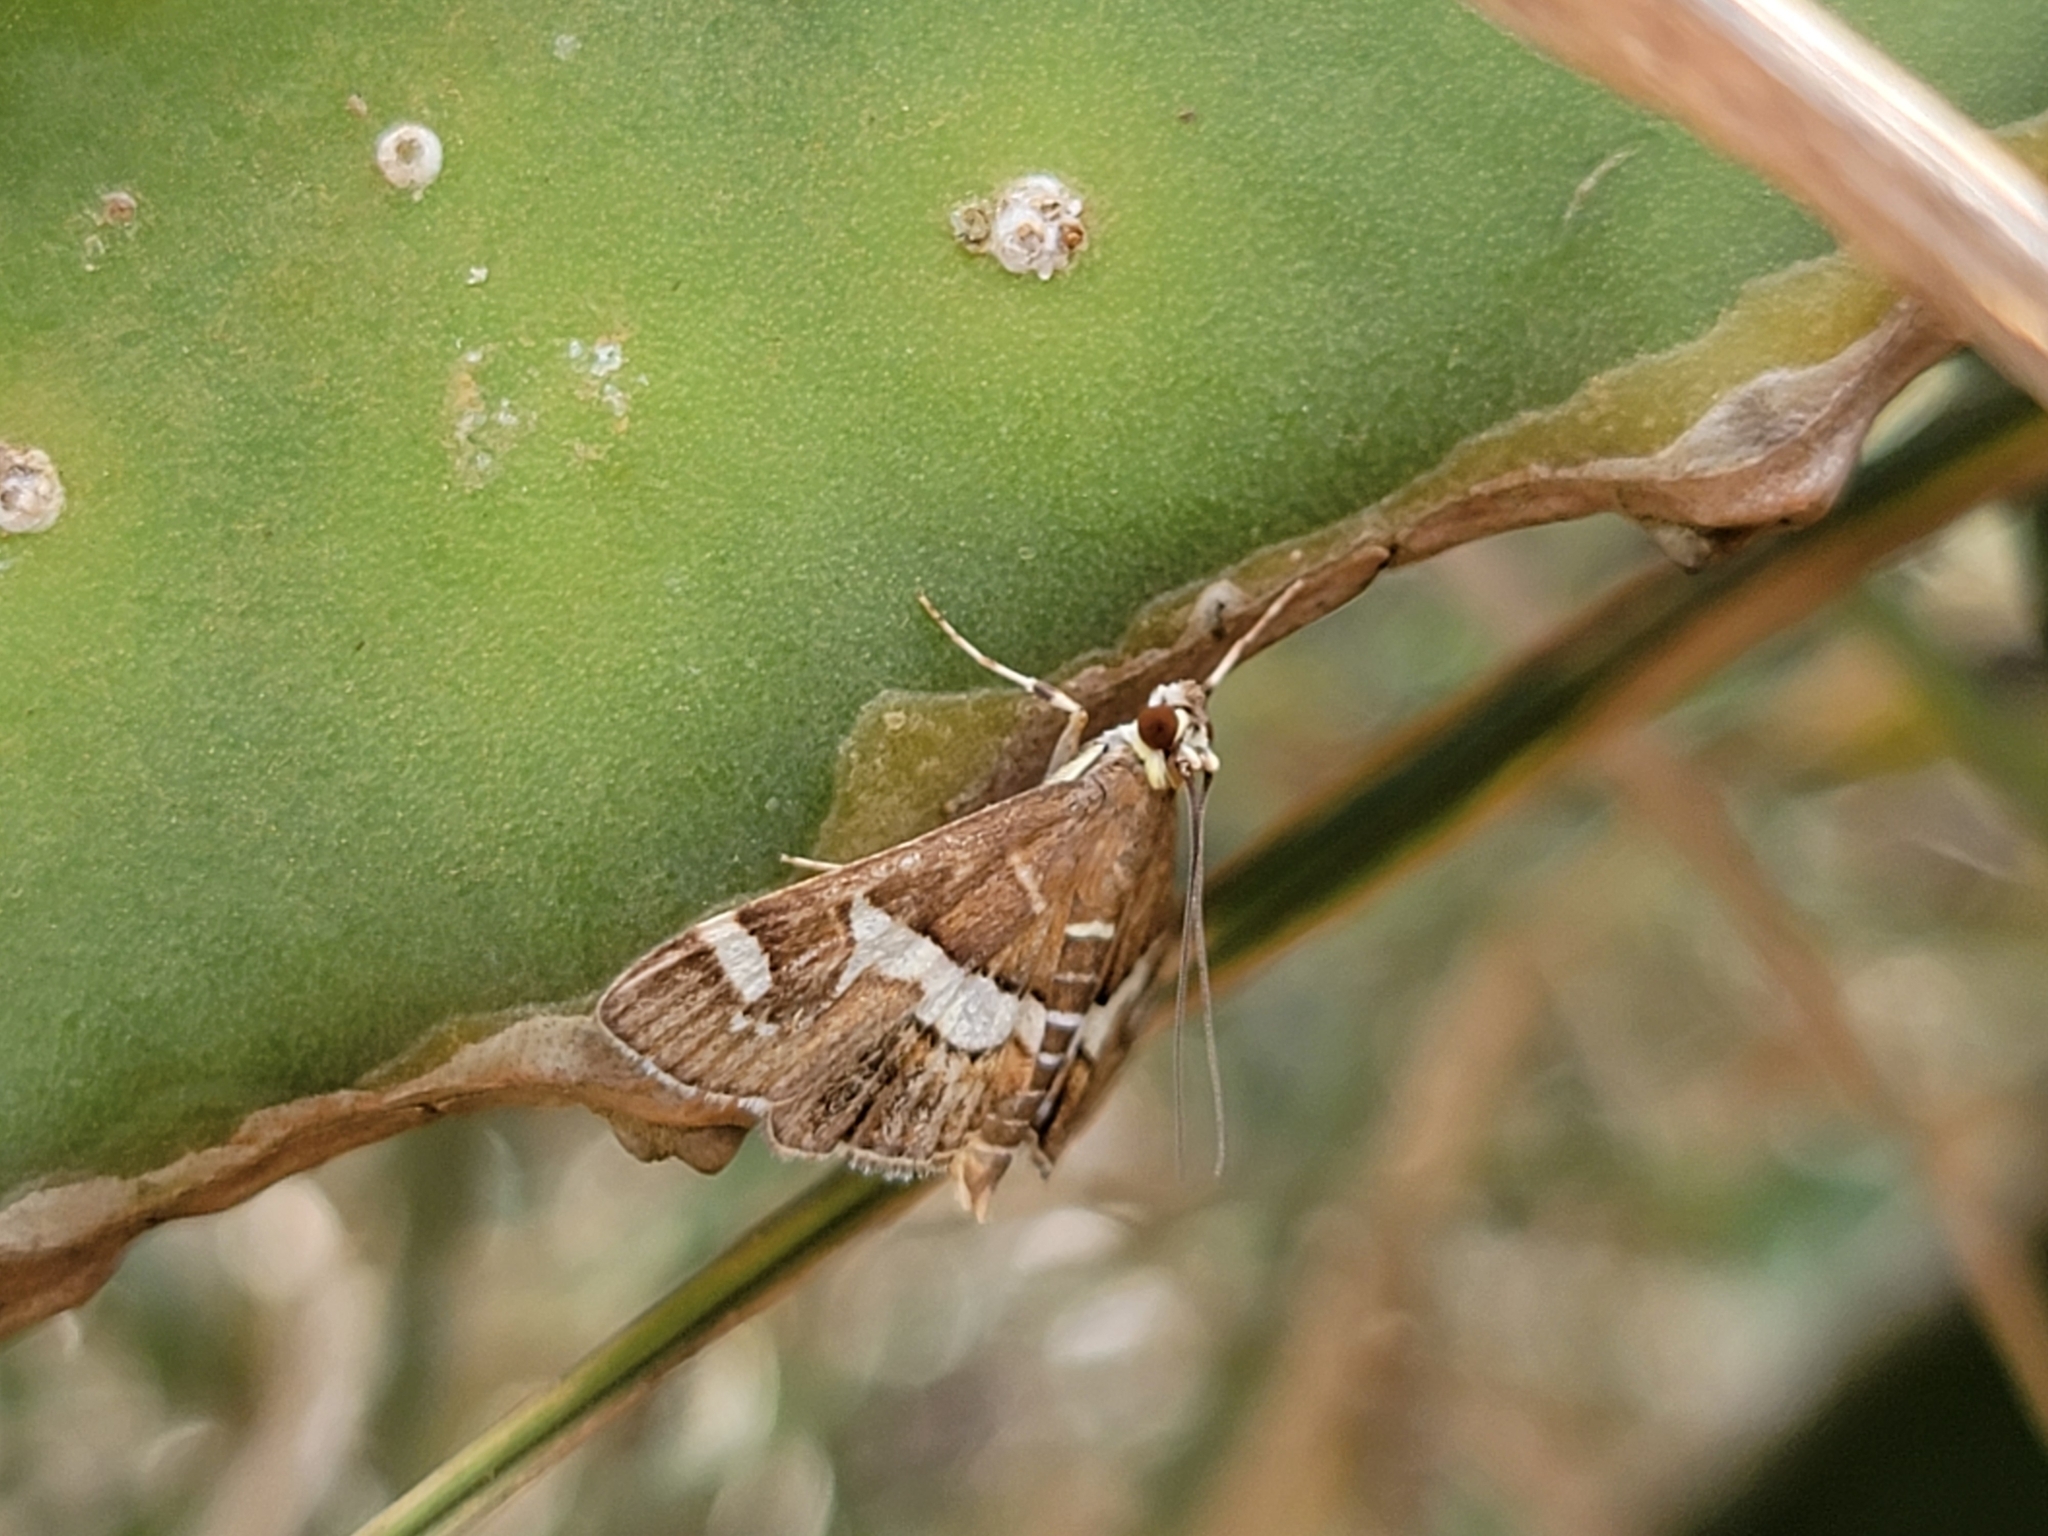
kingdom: Animalia
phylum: Arthropoda
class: Insecta
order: Lepidoptera
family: Crambidae
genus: Spoladea
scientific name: Spoladea recurvalis
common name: Beet webworm moth
